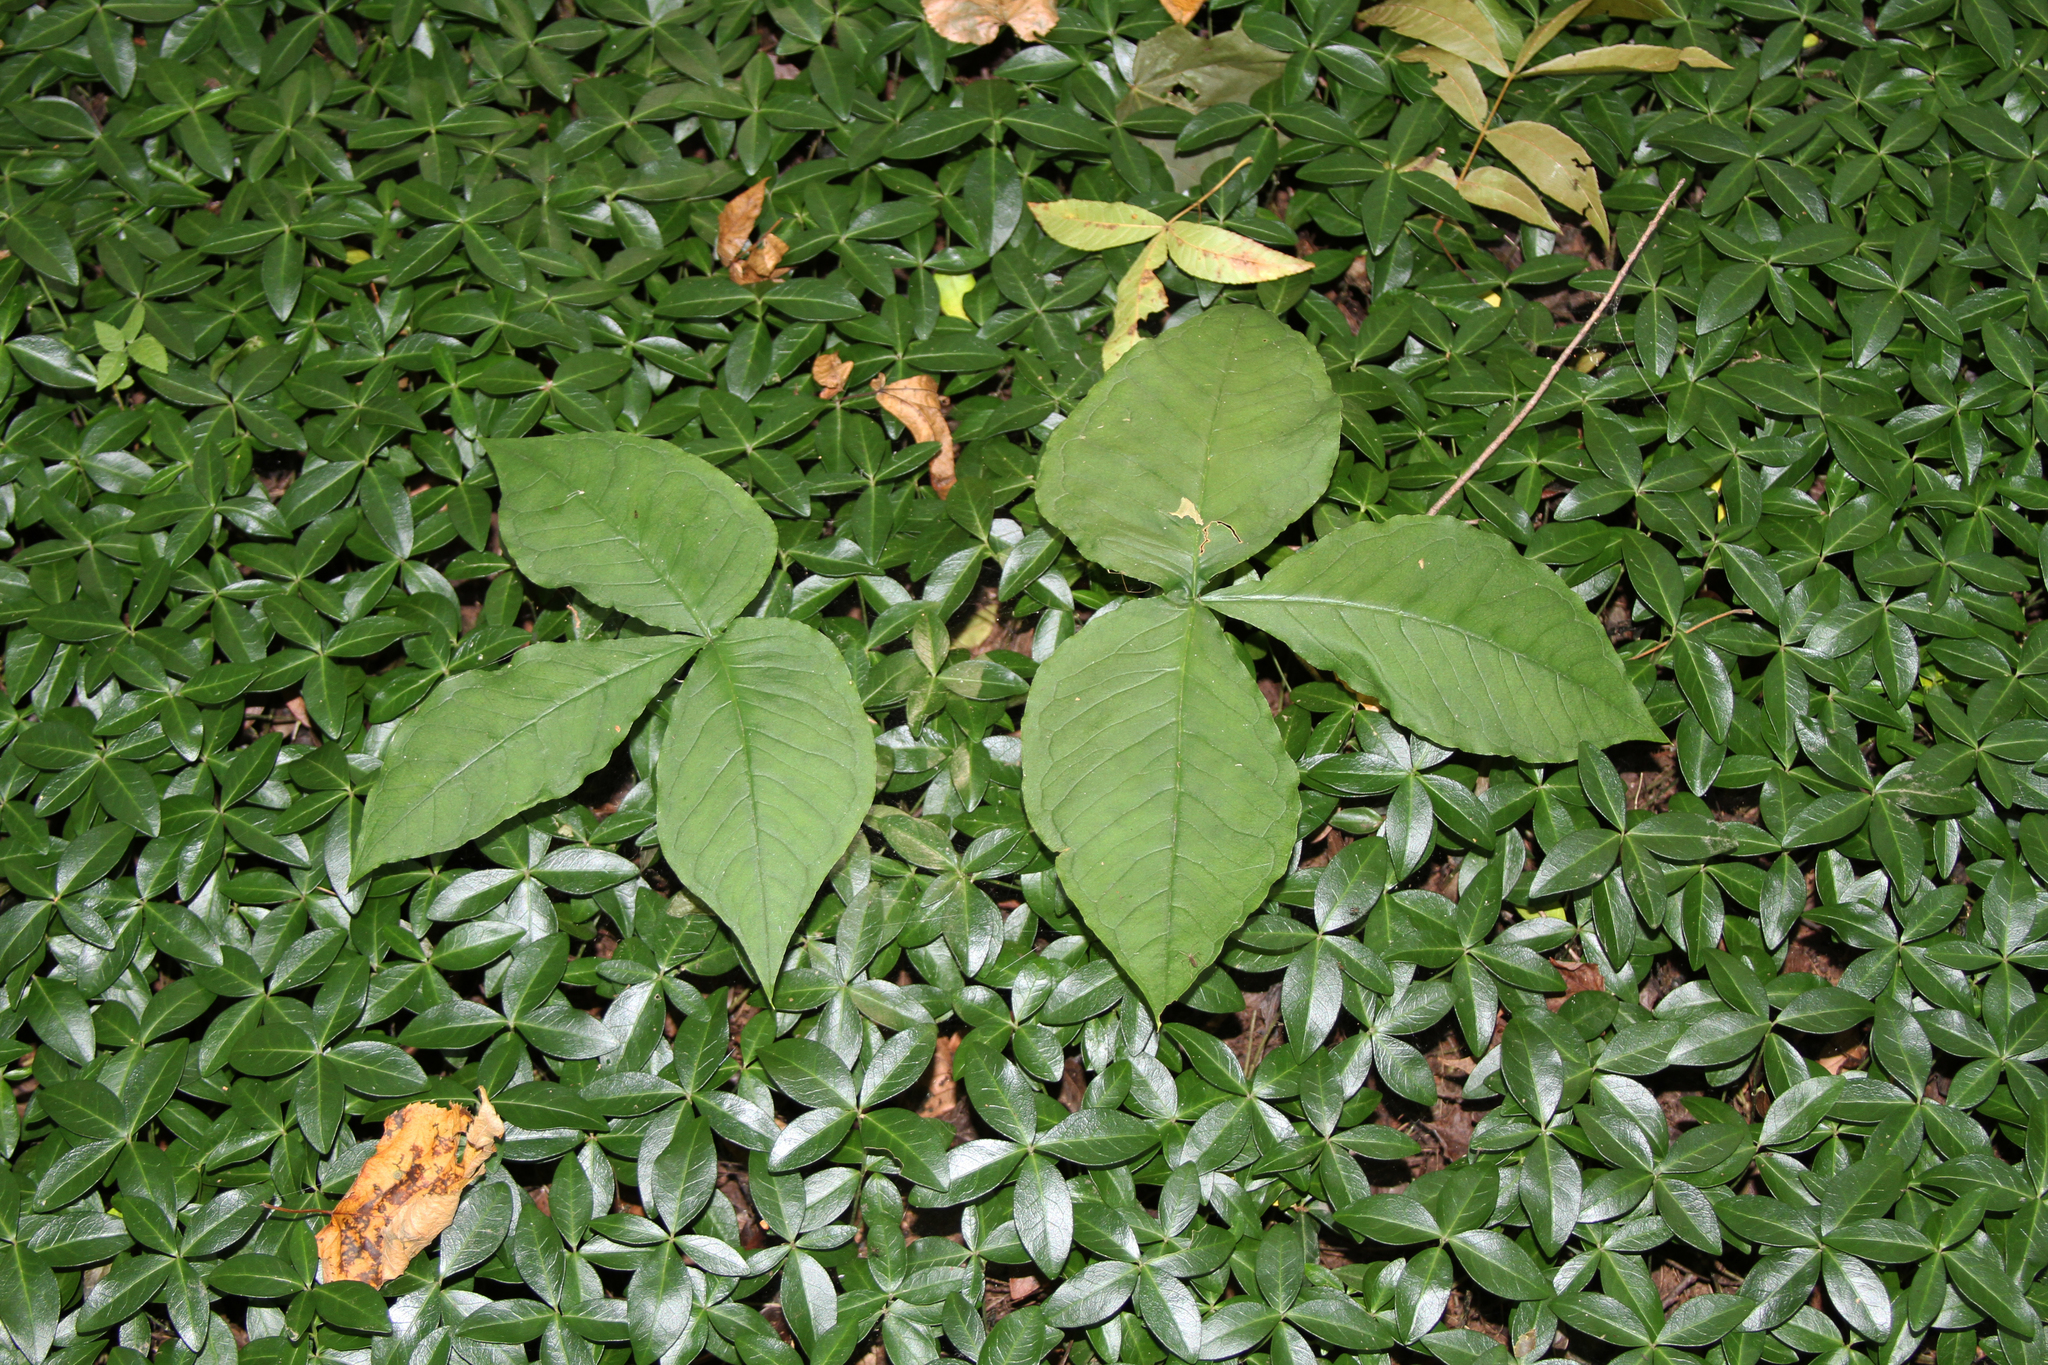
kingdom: Plantae
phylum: Tracheophyta
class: Liliopsida
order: Alismatales
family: Araceae
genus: Arisaema
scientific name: Arisaema triphyllum
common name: Jack-in-the-pulpit
